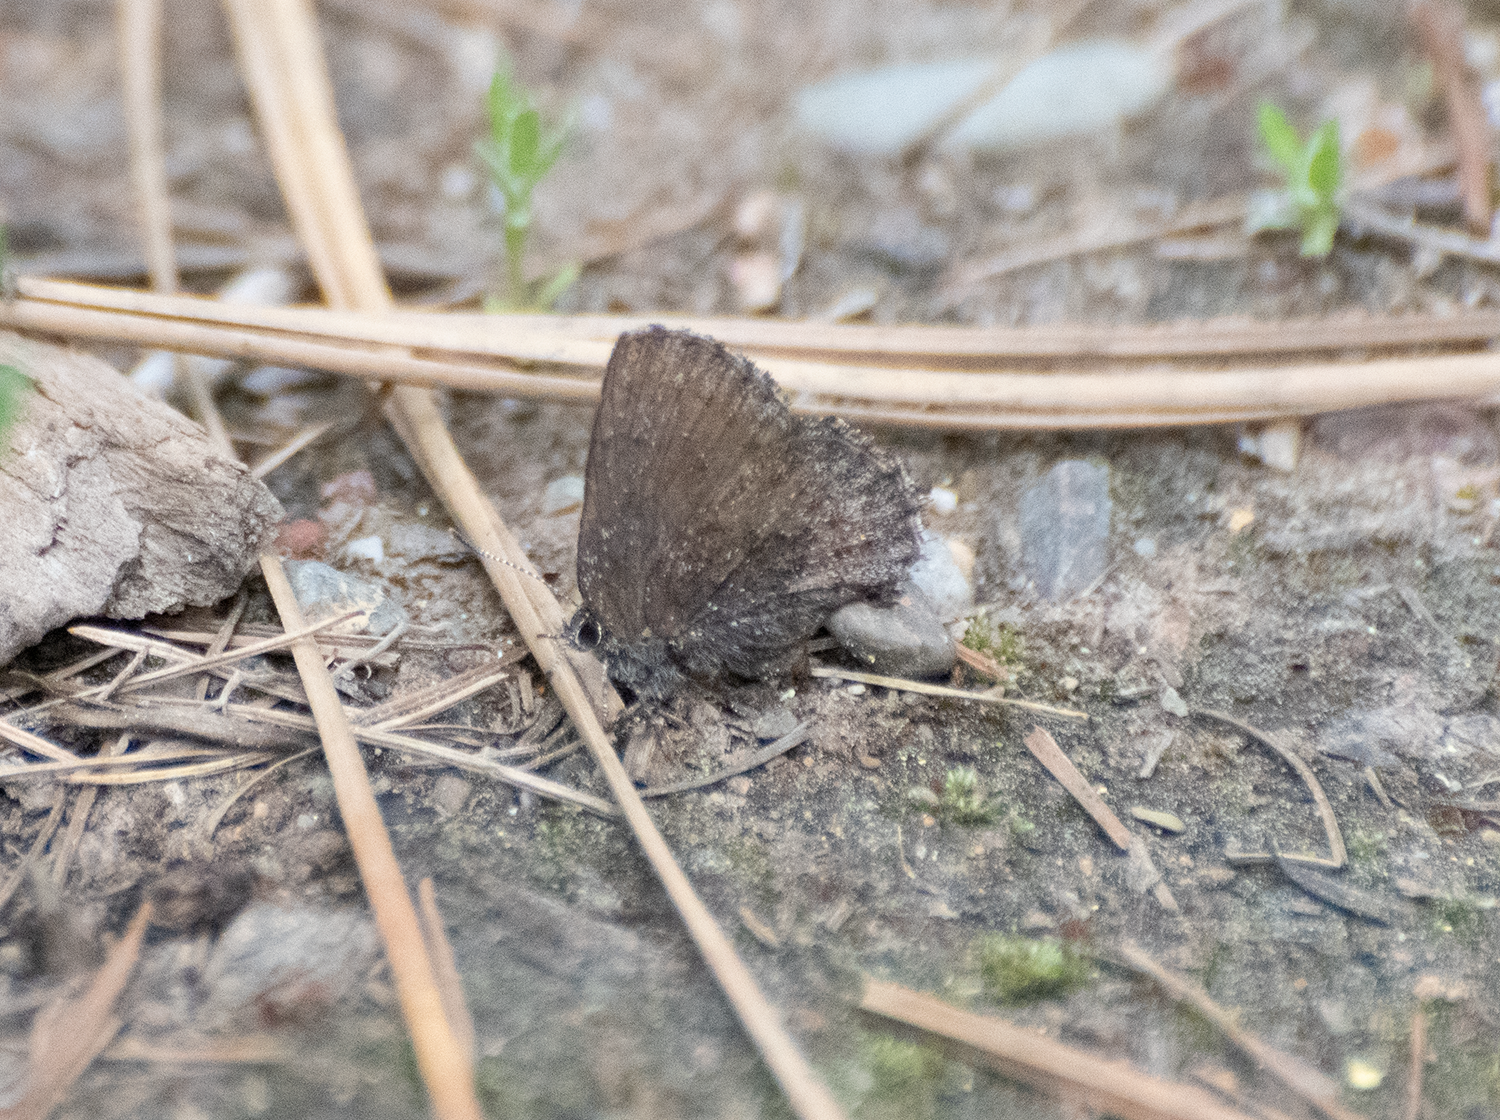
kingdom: Animalia
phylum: Arthropoda
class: Insecta
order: Lepidoptera
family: Lycaenidae
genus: Callophrys
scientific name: Callophrys polios
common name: Hoary elfin
